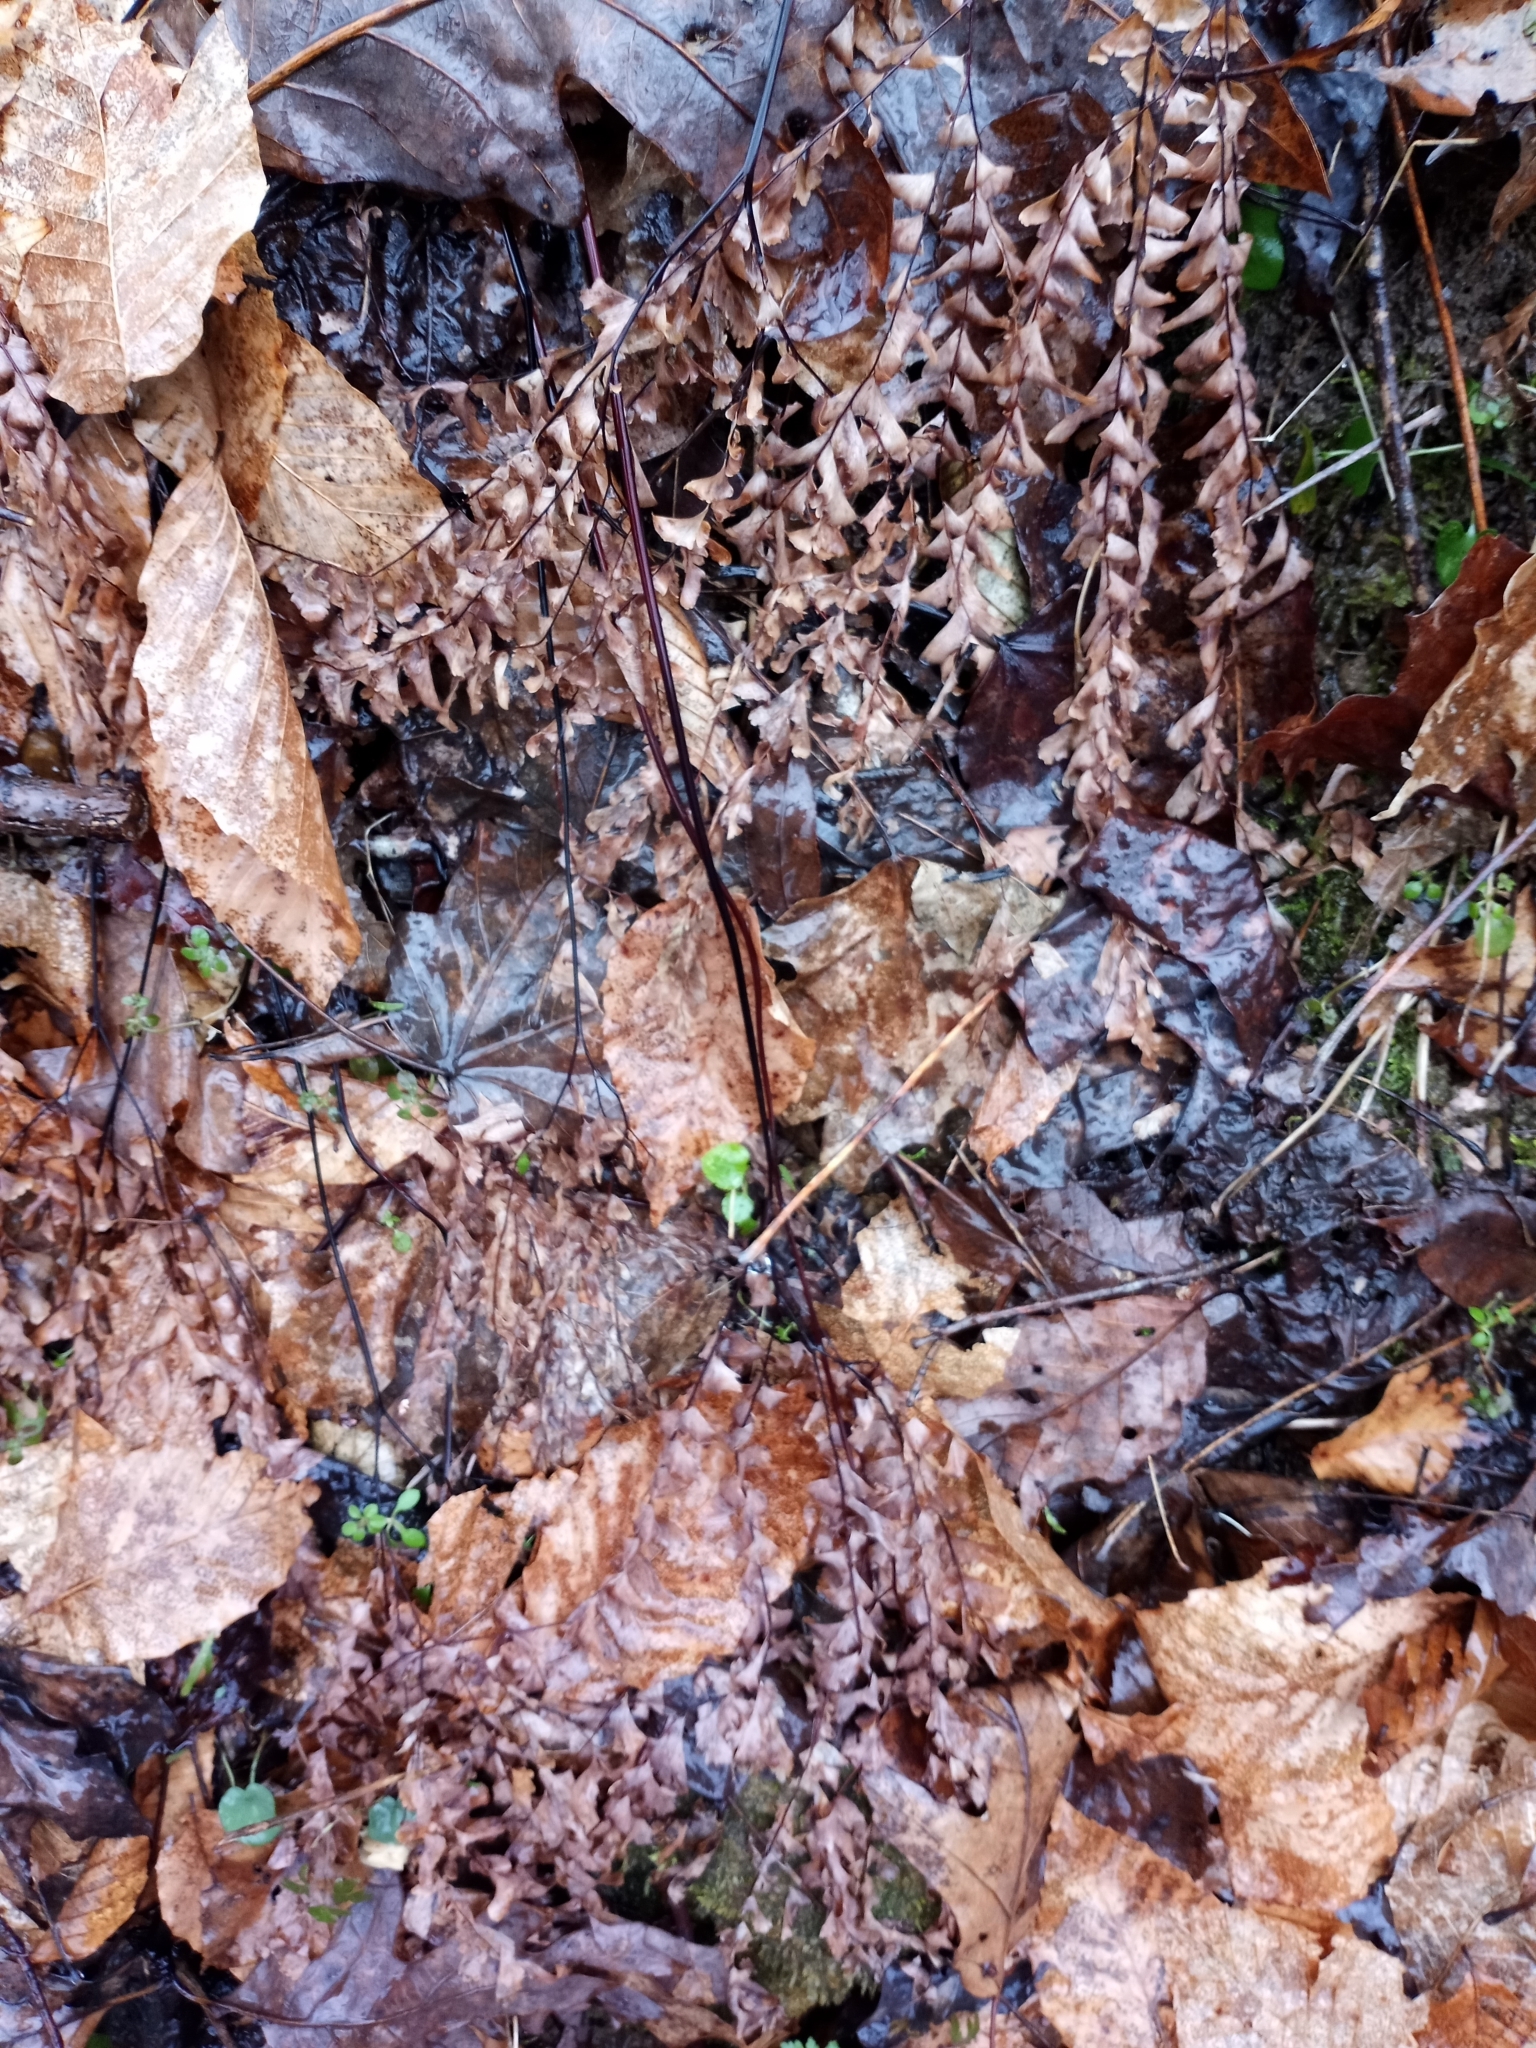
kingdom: Plantae
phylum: Tracheophyta
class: Polypodiopsida
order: Polypodiales
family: Pteridaceae
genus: Adiantum
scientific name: Adiantum pedatum
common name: Five-finger fern
